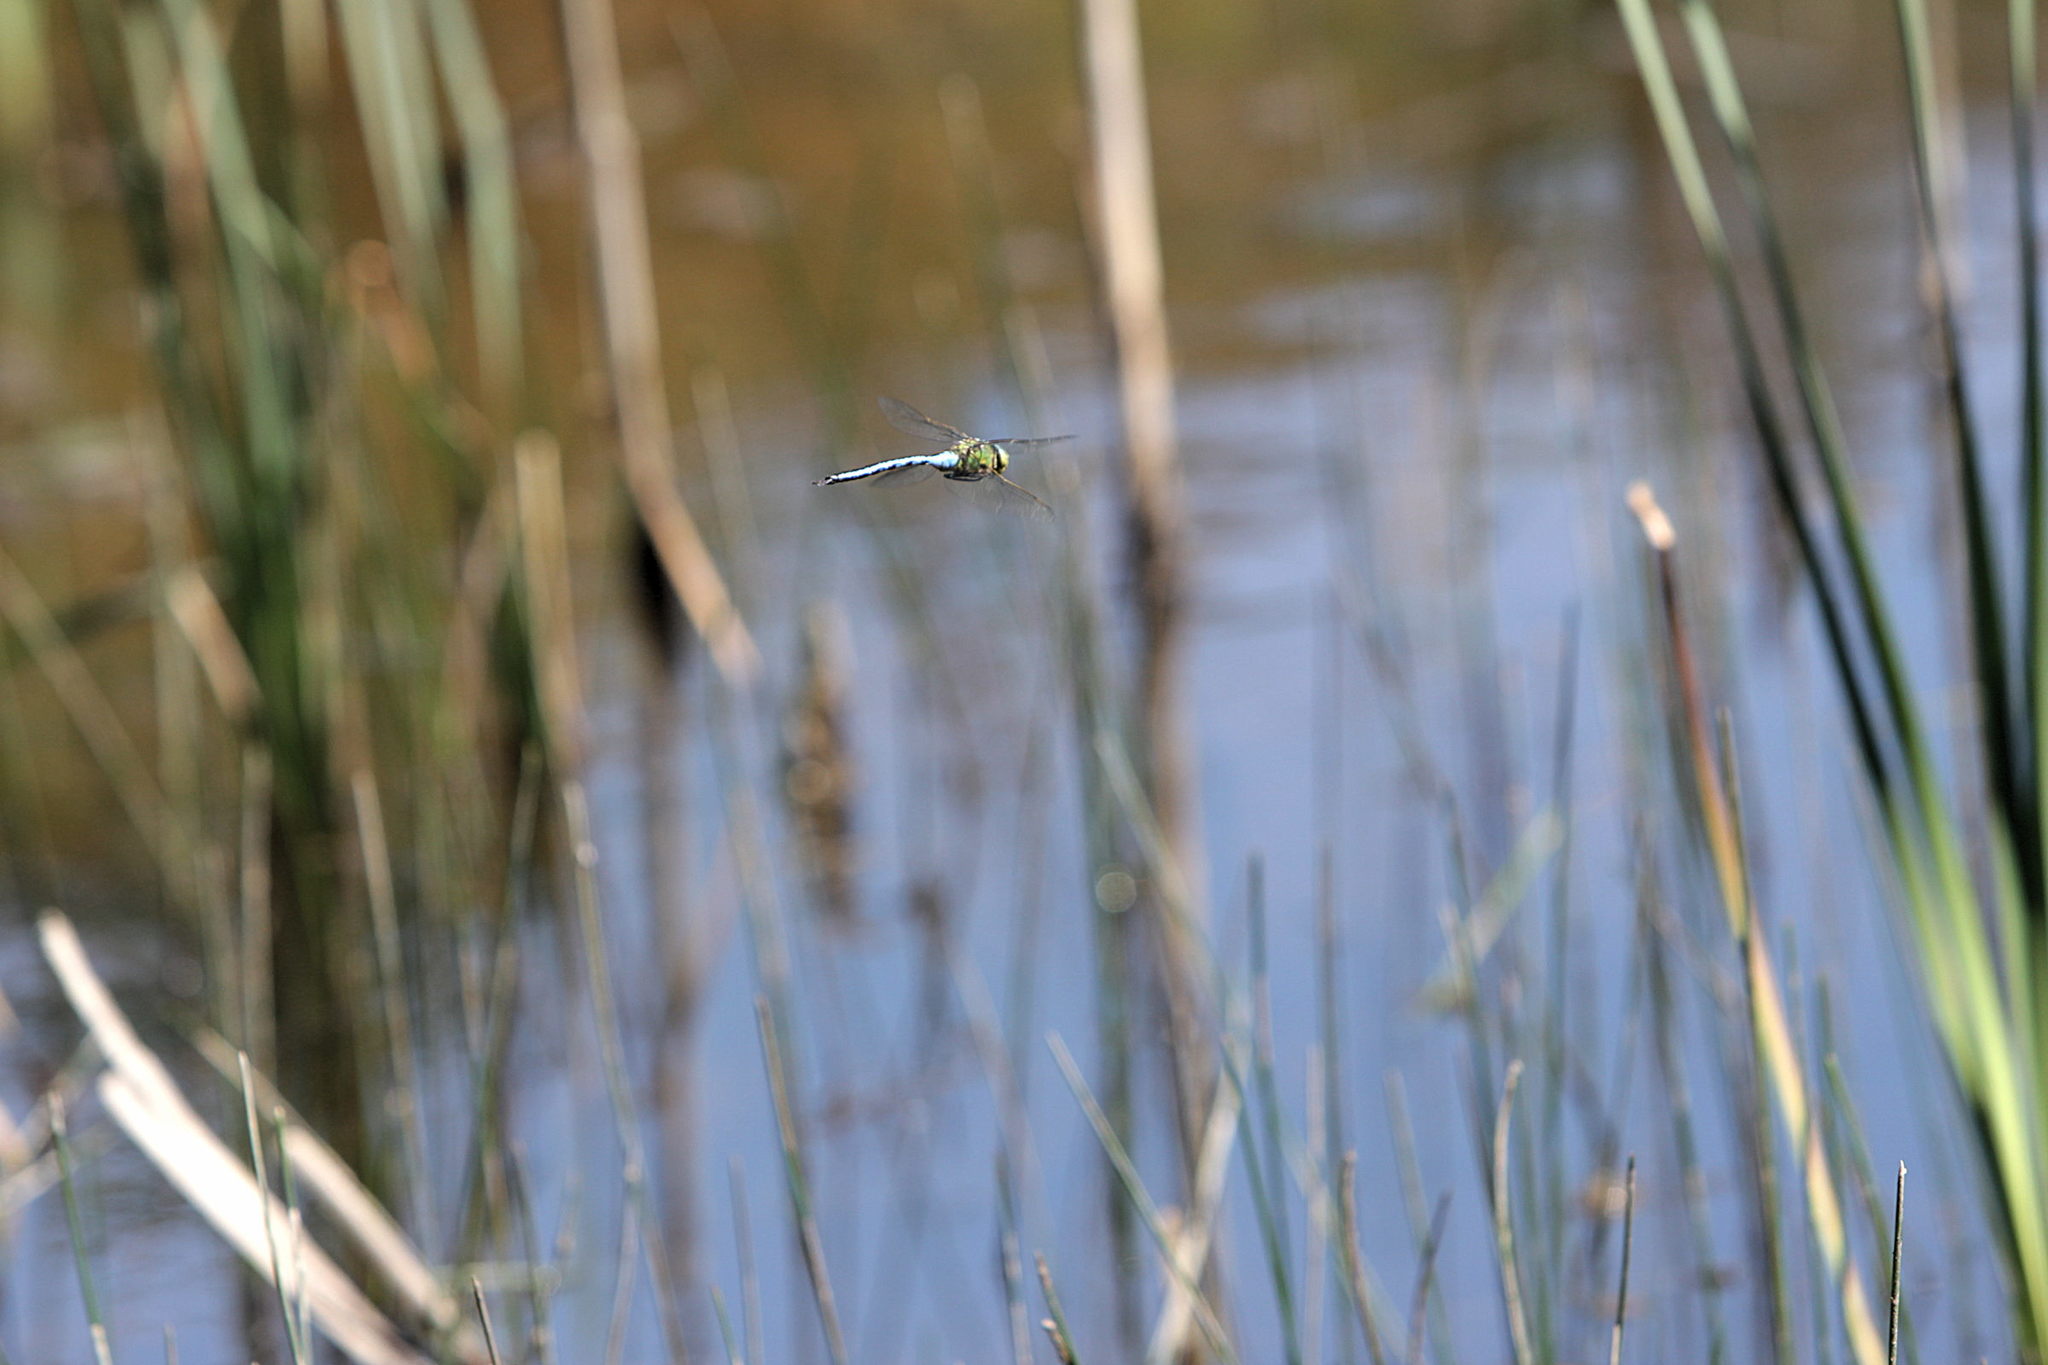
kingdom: Animalia
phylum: Arthropoda
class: Insecta
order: Odonata
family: Aeshnidae
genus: Anax
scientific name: Anax imperator
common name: Emperor dragonfly
